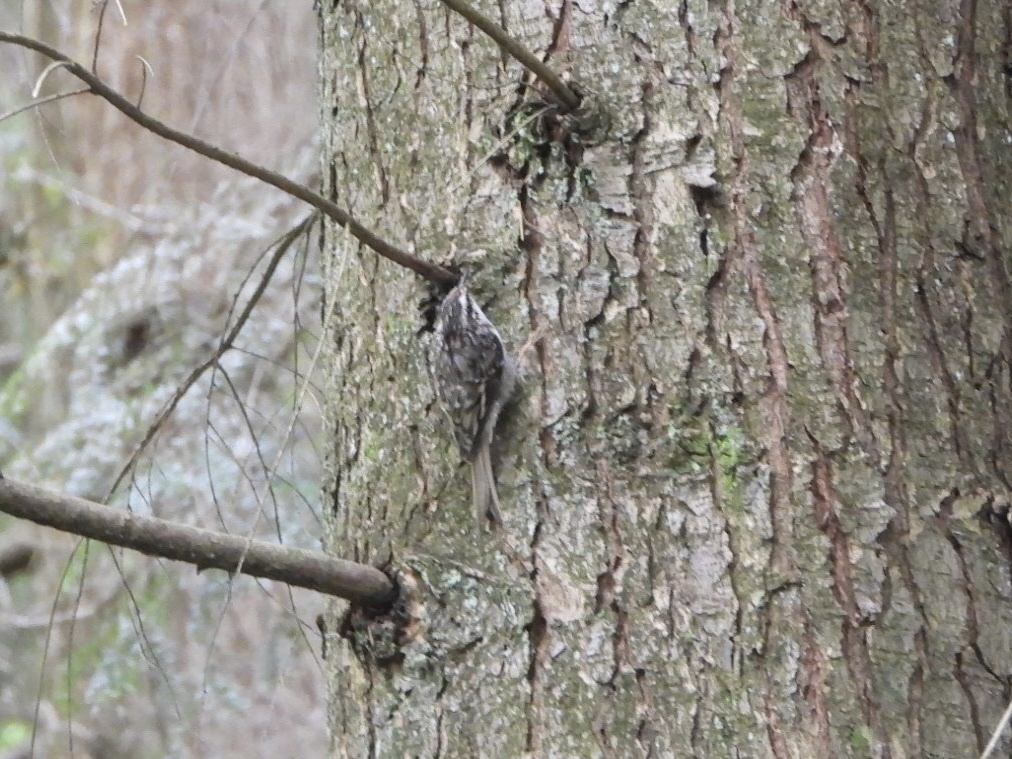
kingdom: Animalia
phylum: Chordata
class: Aves
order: Passeriformes
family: Certhiidae
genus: Certhia
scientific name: Certhia americana
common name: Brown creeper
